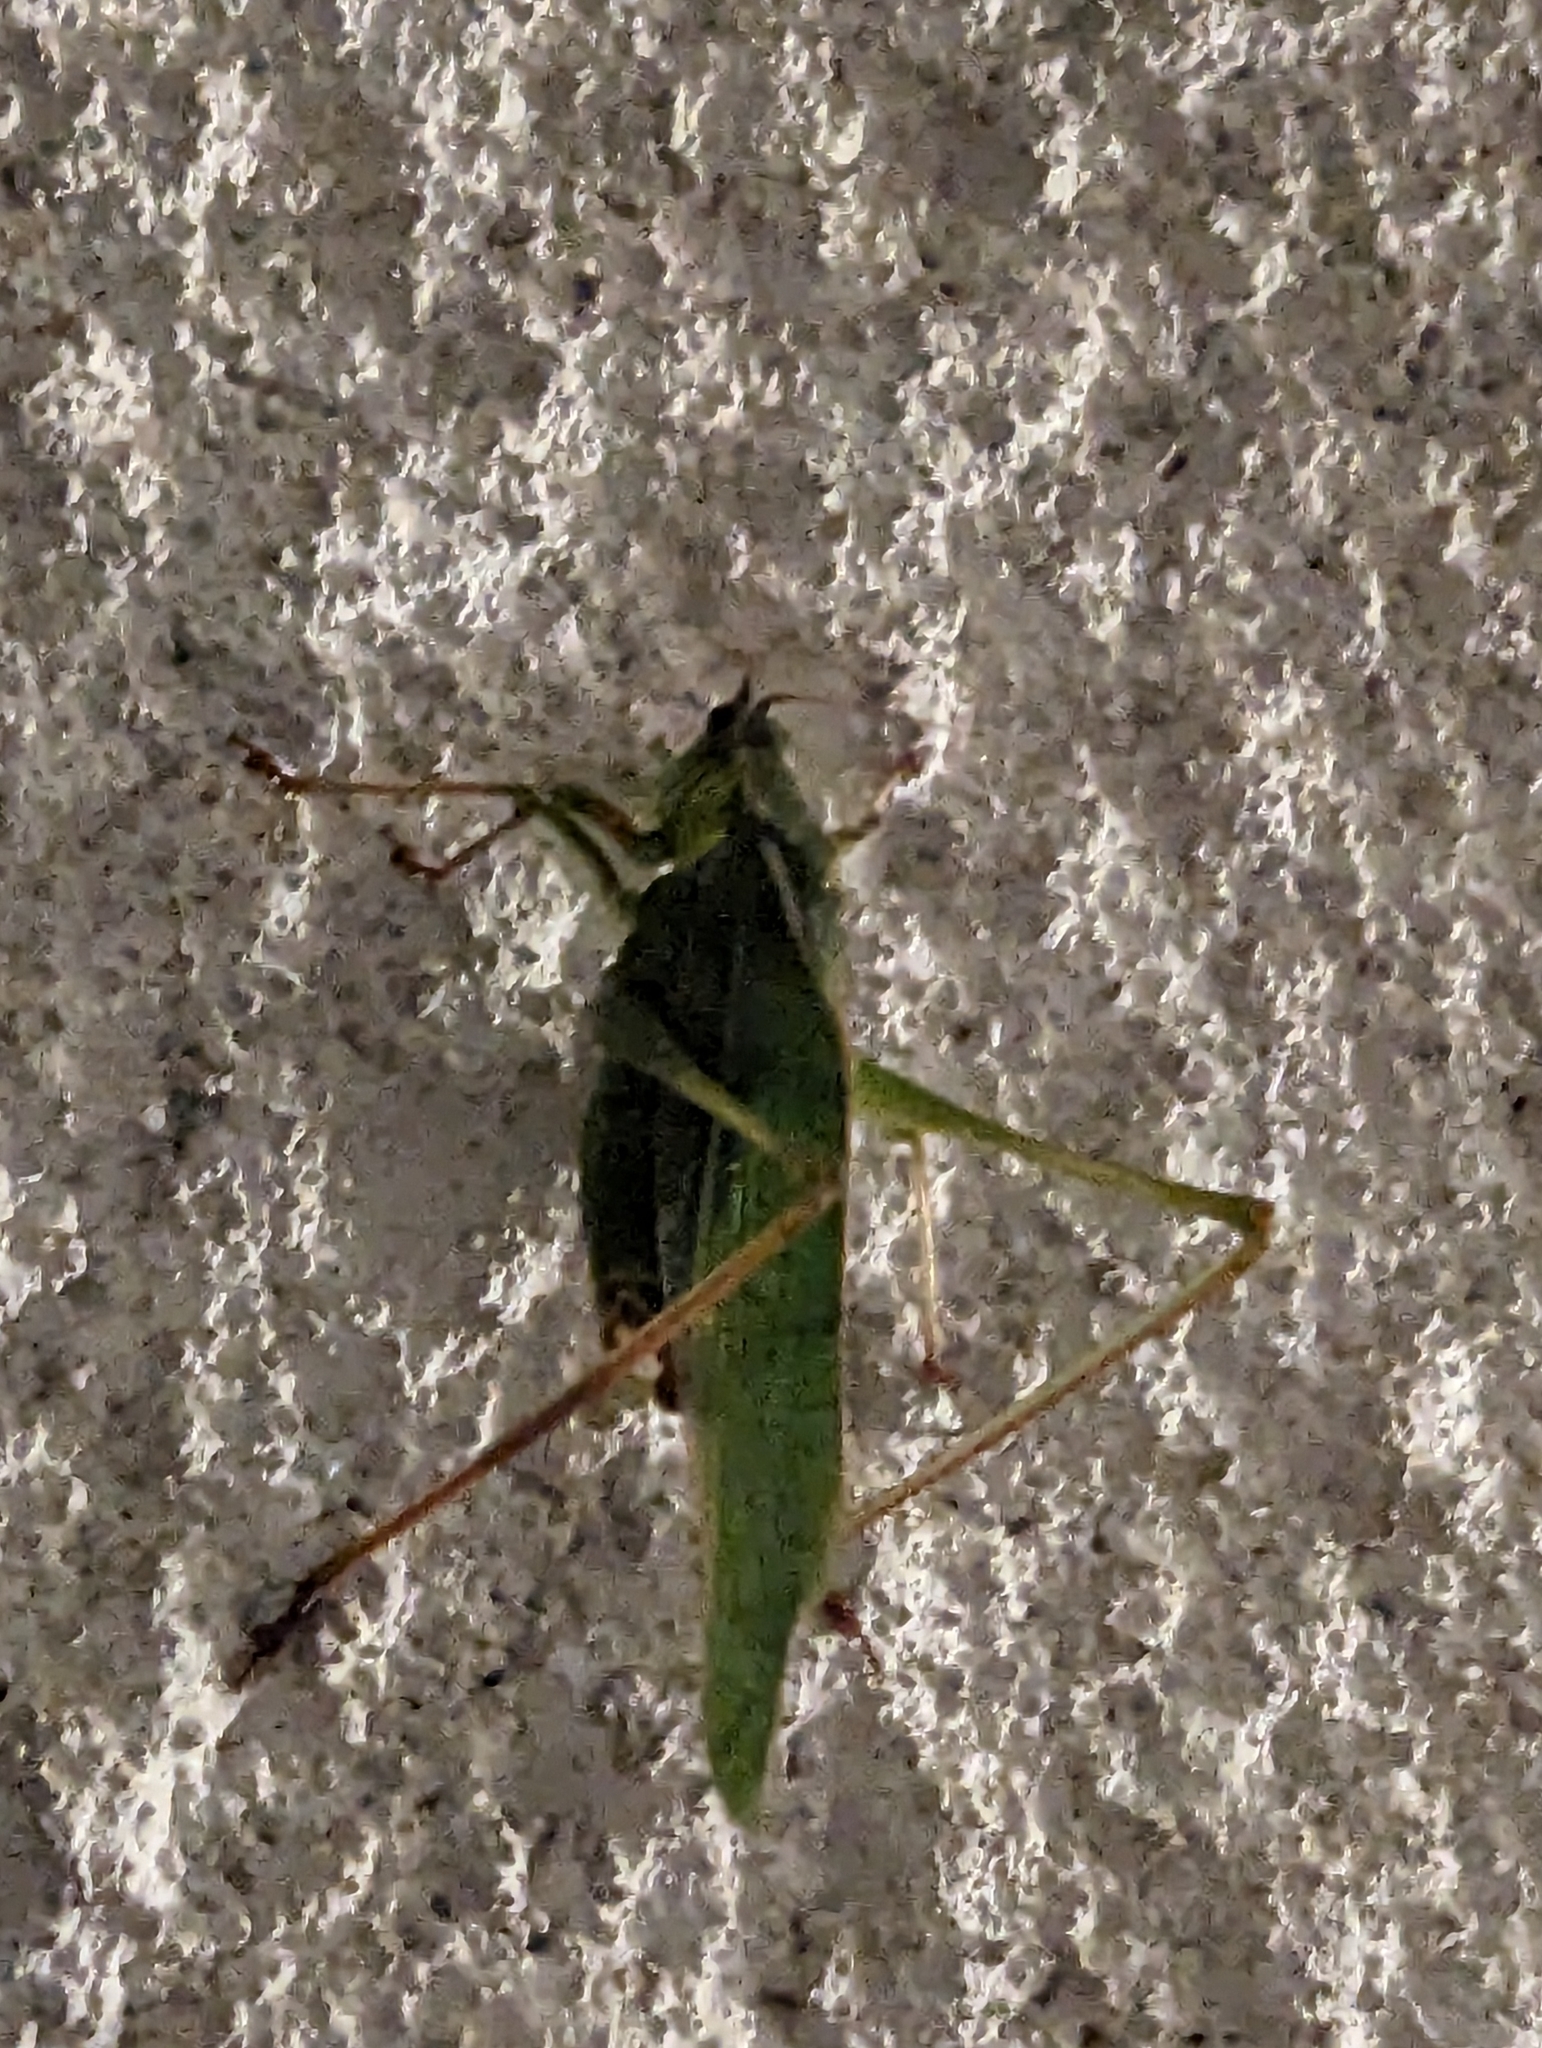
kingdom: Animalia
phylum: Arthropoda
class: Insecta
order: Orthoptera
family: Tettigoniidae
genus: Scudderia
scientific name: Scudderia furcata
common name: Fork-tailed bush katydid
